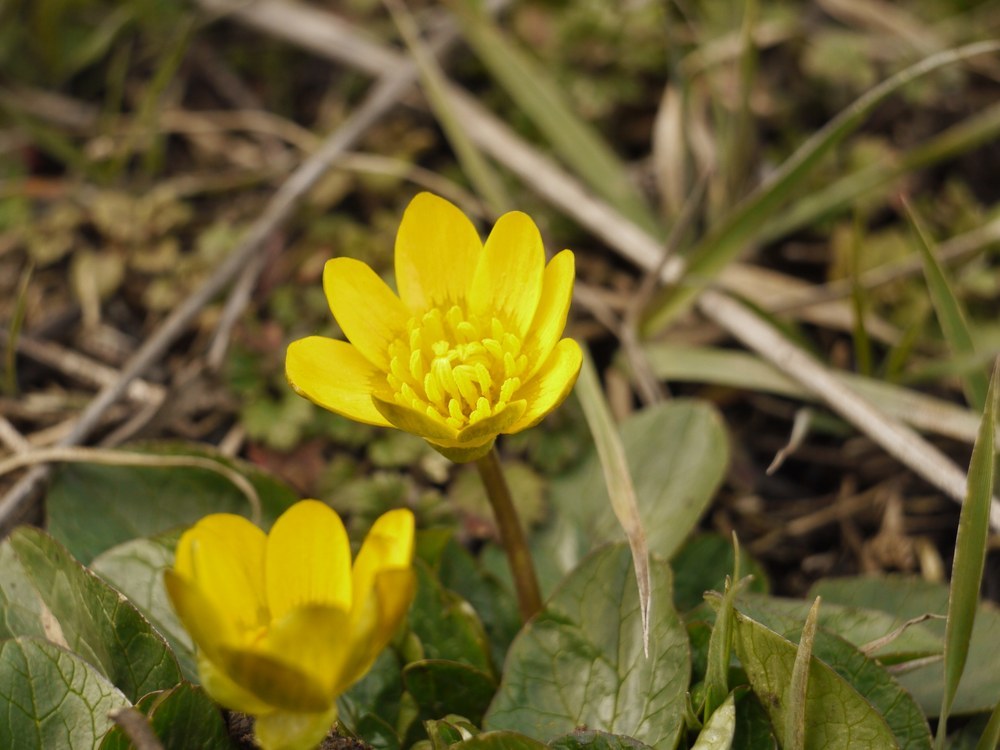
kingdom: Plantae
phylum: Tracheophyta
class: Magnoliopsida
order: Ranunculales
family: Ranunculaceae
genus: Ficaria
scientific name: Ficaria verna
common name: Lesser celandine
